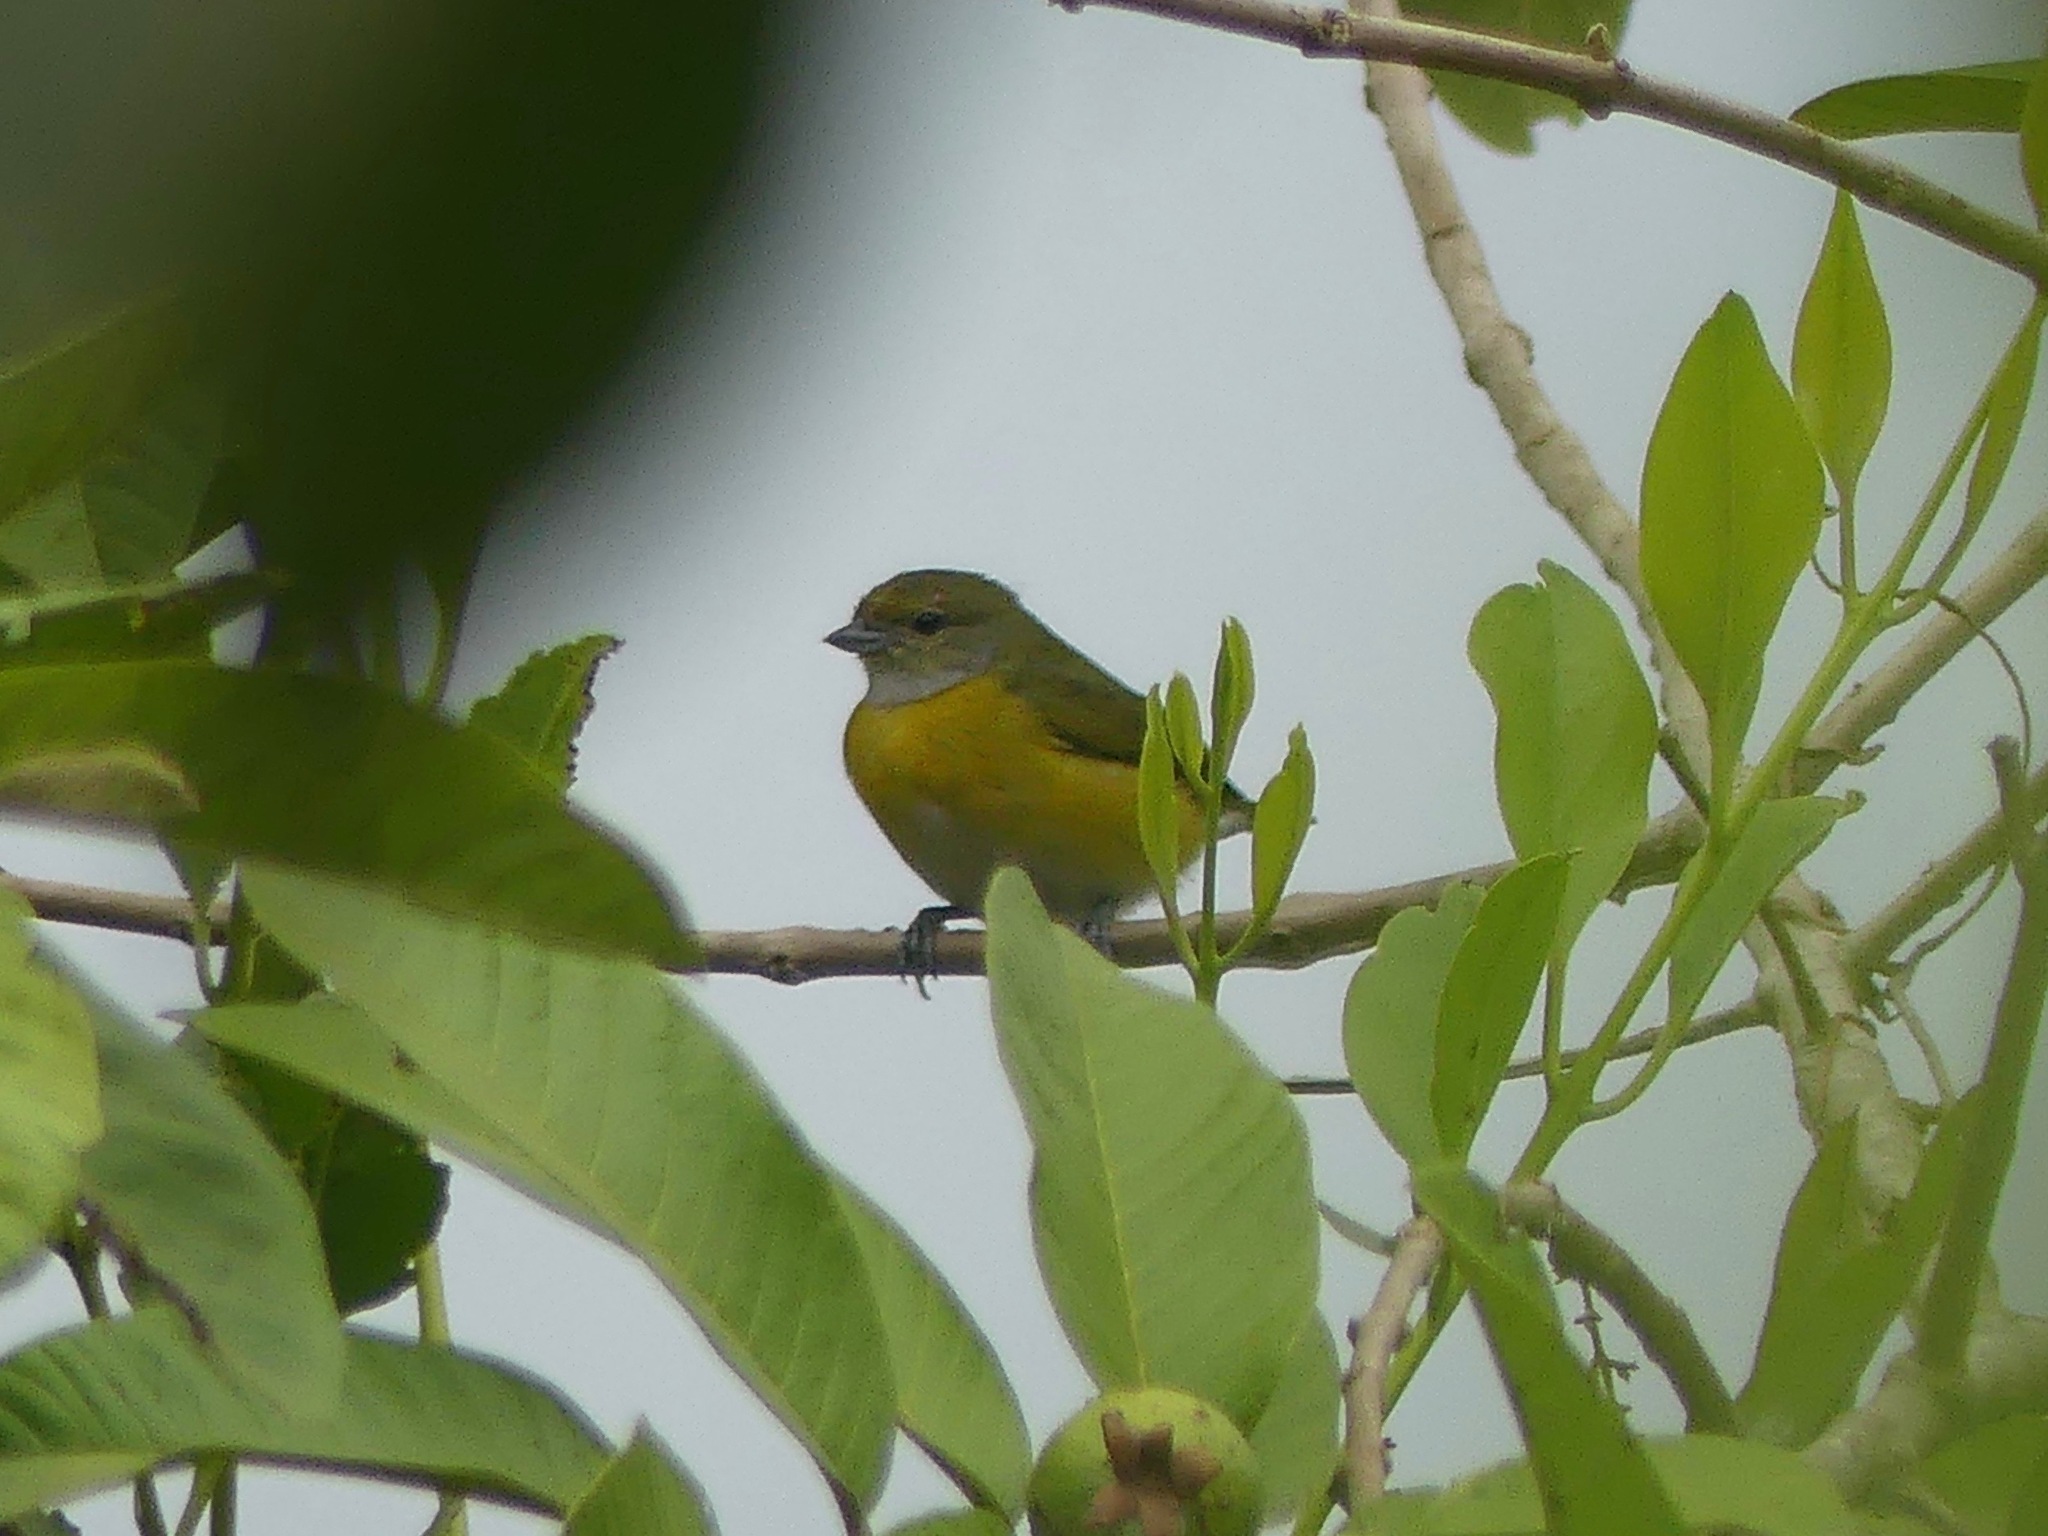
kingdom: Animalia
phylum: Chordata
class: Aves
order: Passeriformes
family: Fringillidae
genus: Euphonia
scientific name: Euphonia chlorotica
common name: Purple-throated euphonia
